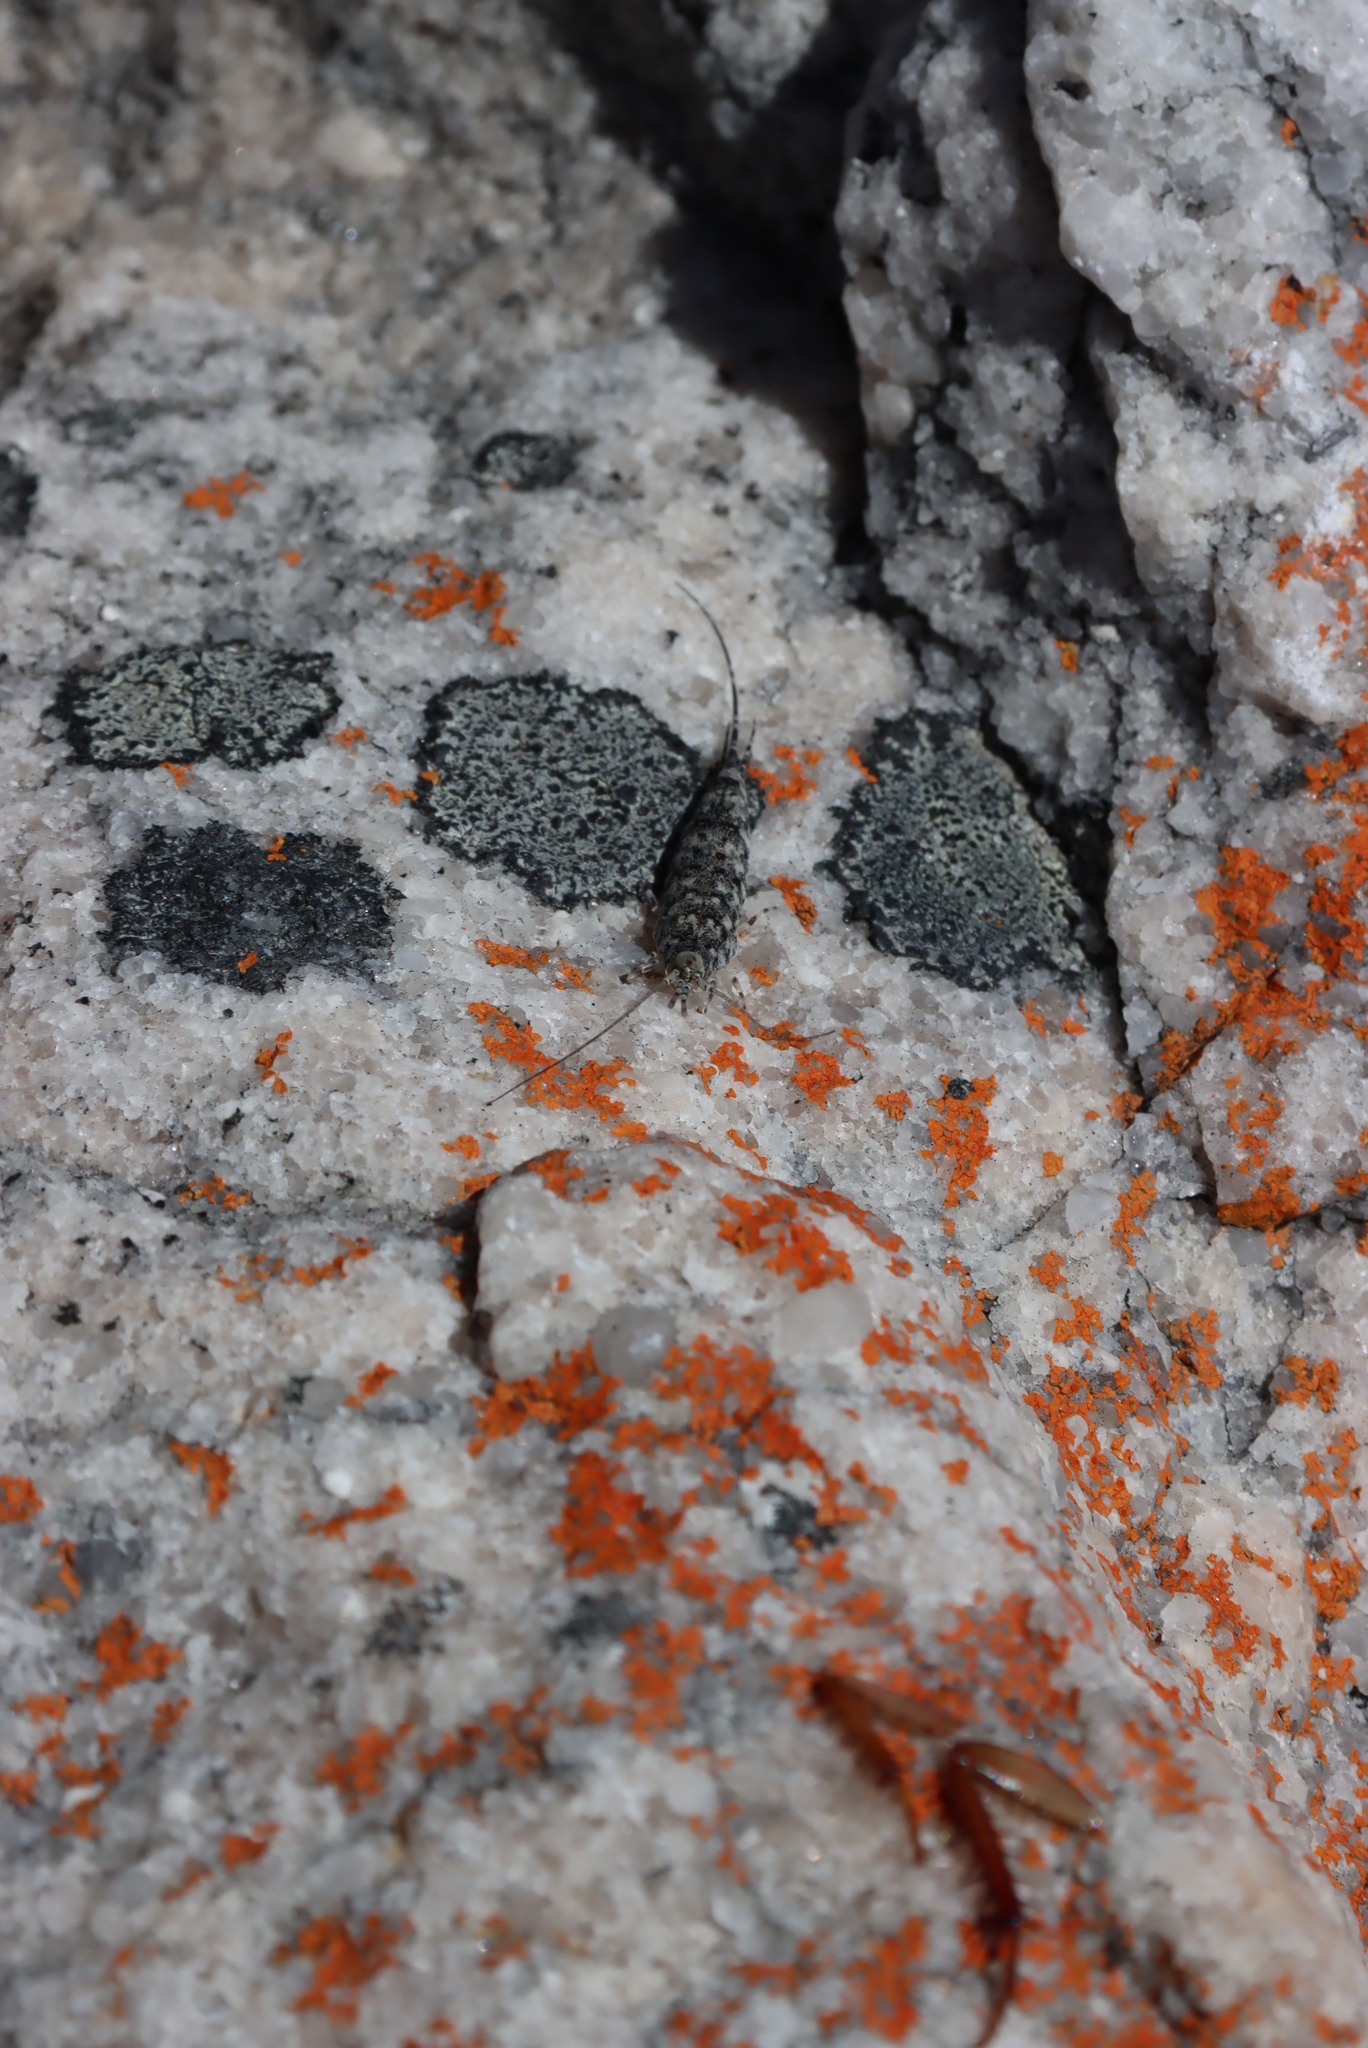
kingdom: Animalia
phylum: Arthropoda
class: Insecta
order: Archaeognatha
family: Meinertellidae
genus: Hypomachiloides
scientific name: Hypomachiloides
